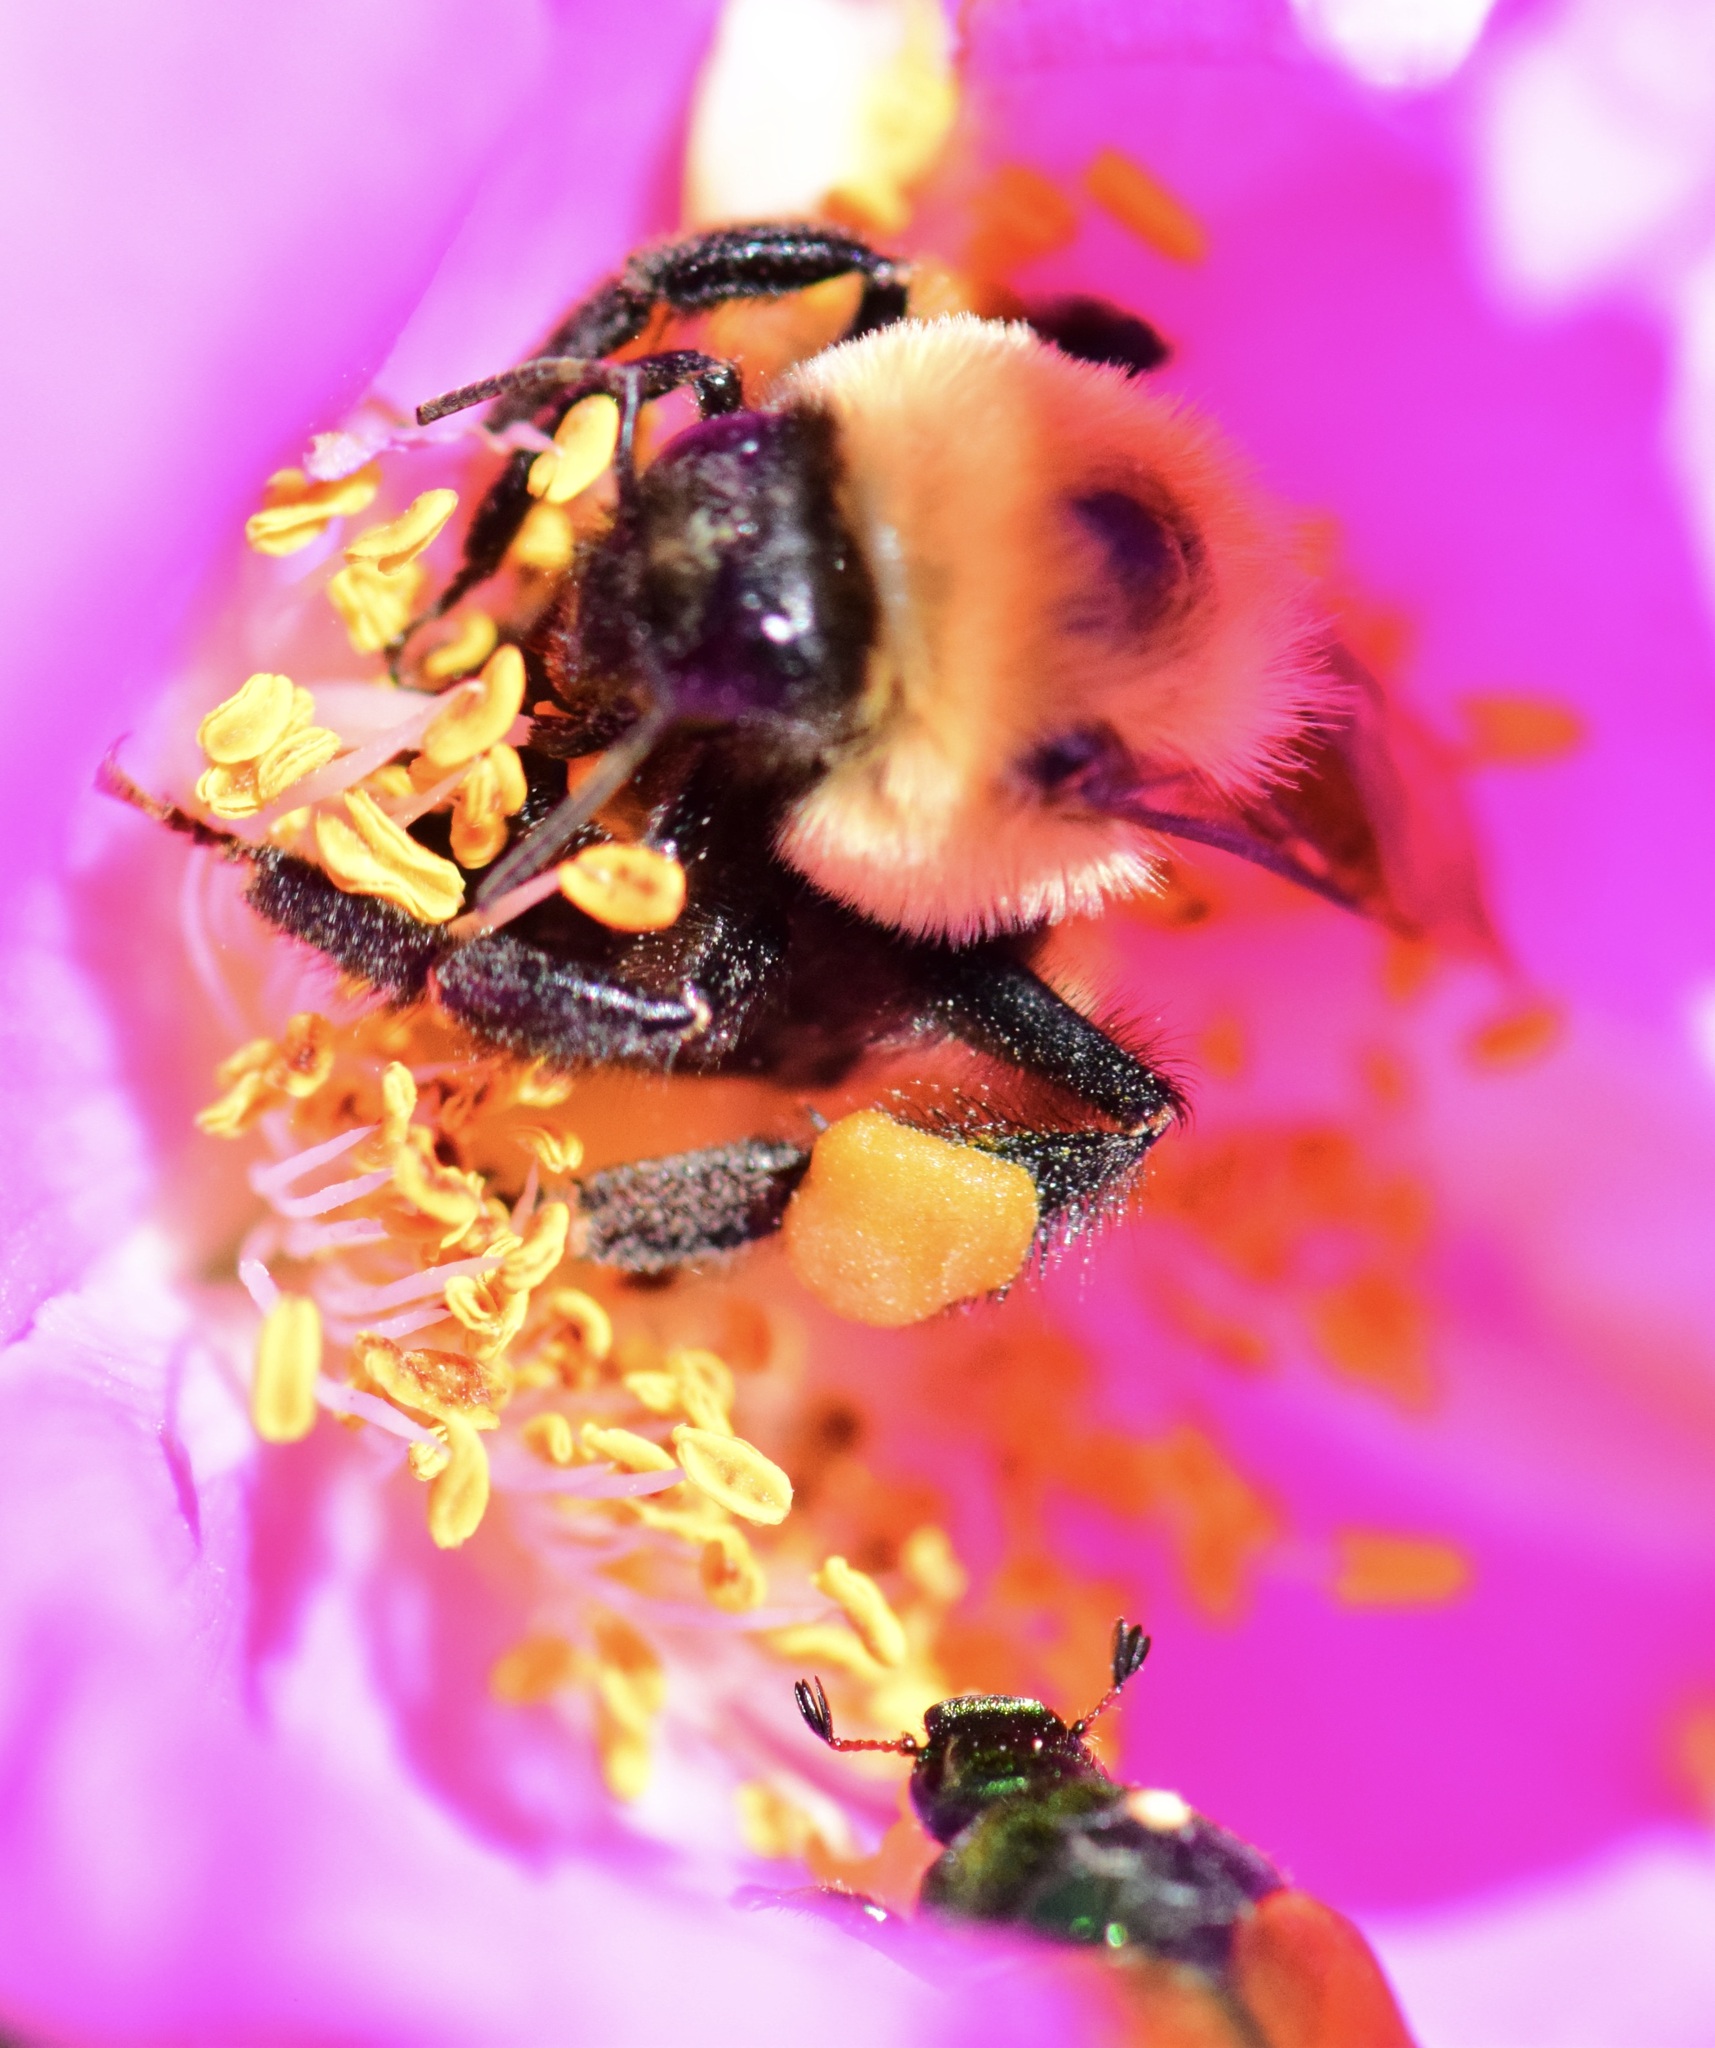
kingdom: Animalia
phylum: Arthropoda
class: Insecta
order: Hymenoptera
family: Apidae
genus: Bombus
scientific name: Bombus griseocollis
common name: Brown-belted bumble bee
